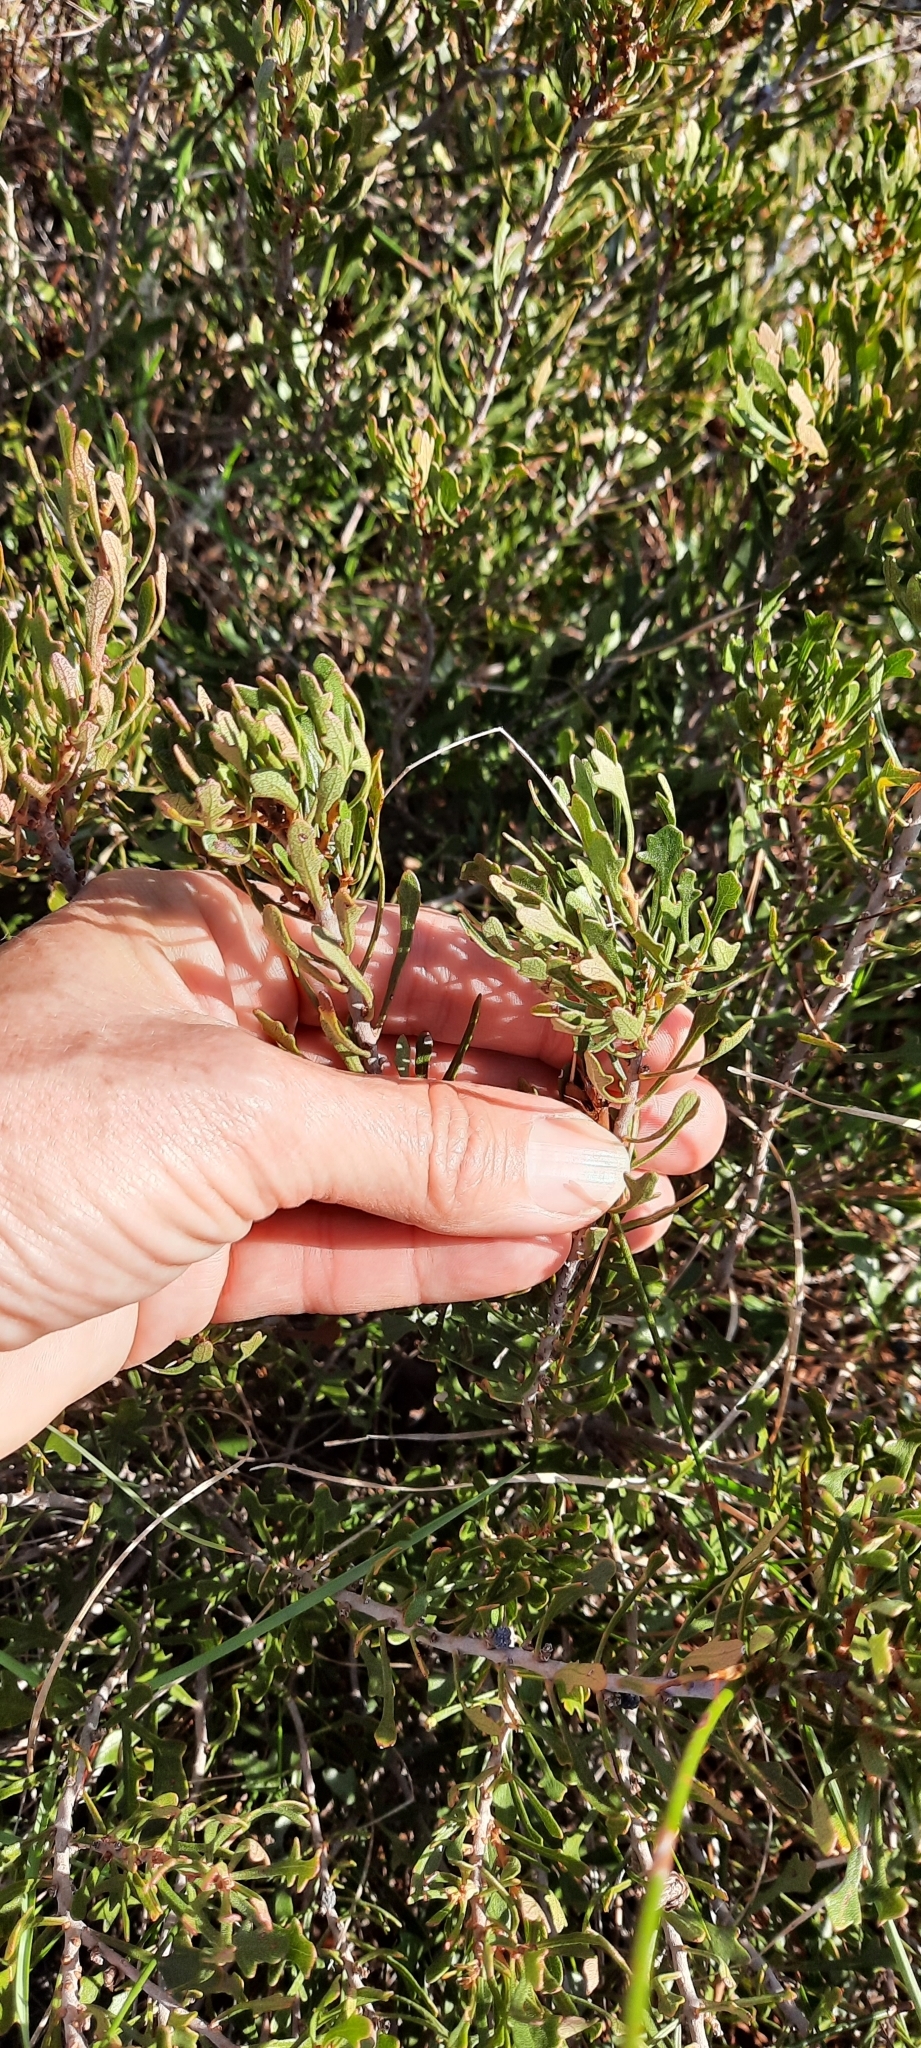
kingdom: Plantae
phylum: Tracheophyta
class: Magnoliopsida
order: Fagales
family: Myricaceae
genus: Morella
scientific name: Morella quercifolia
